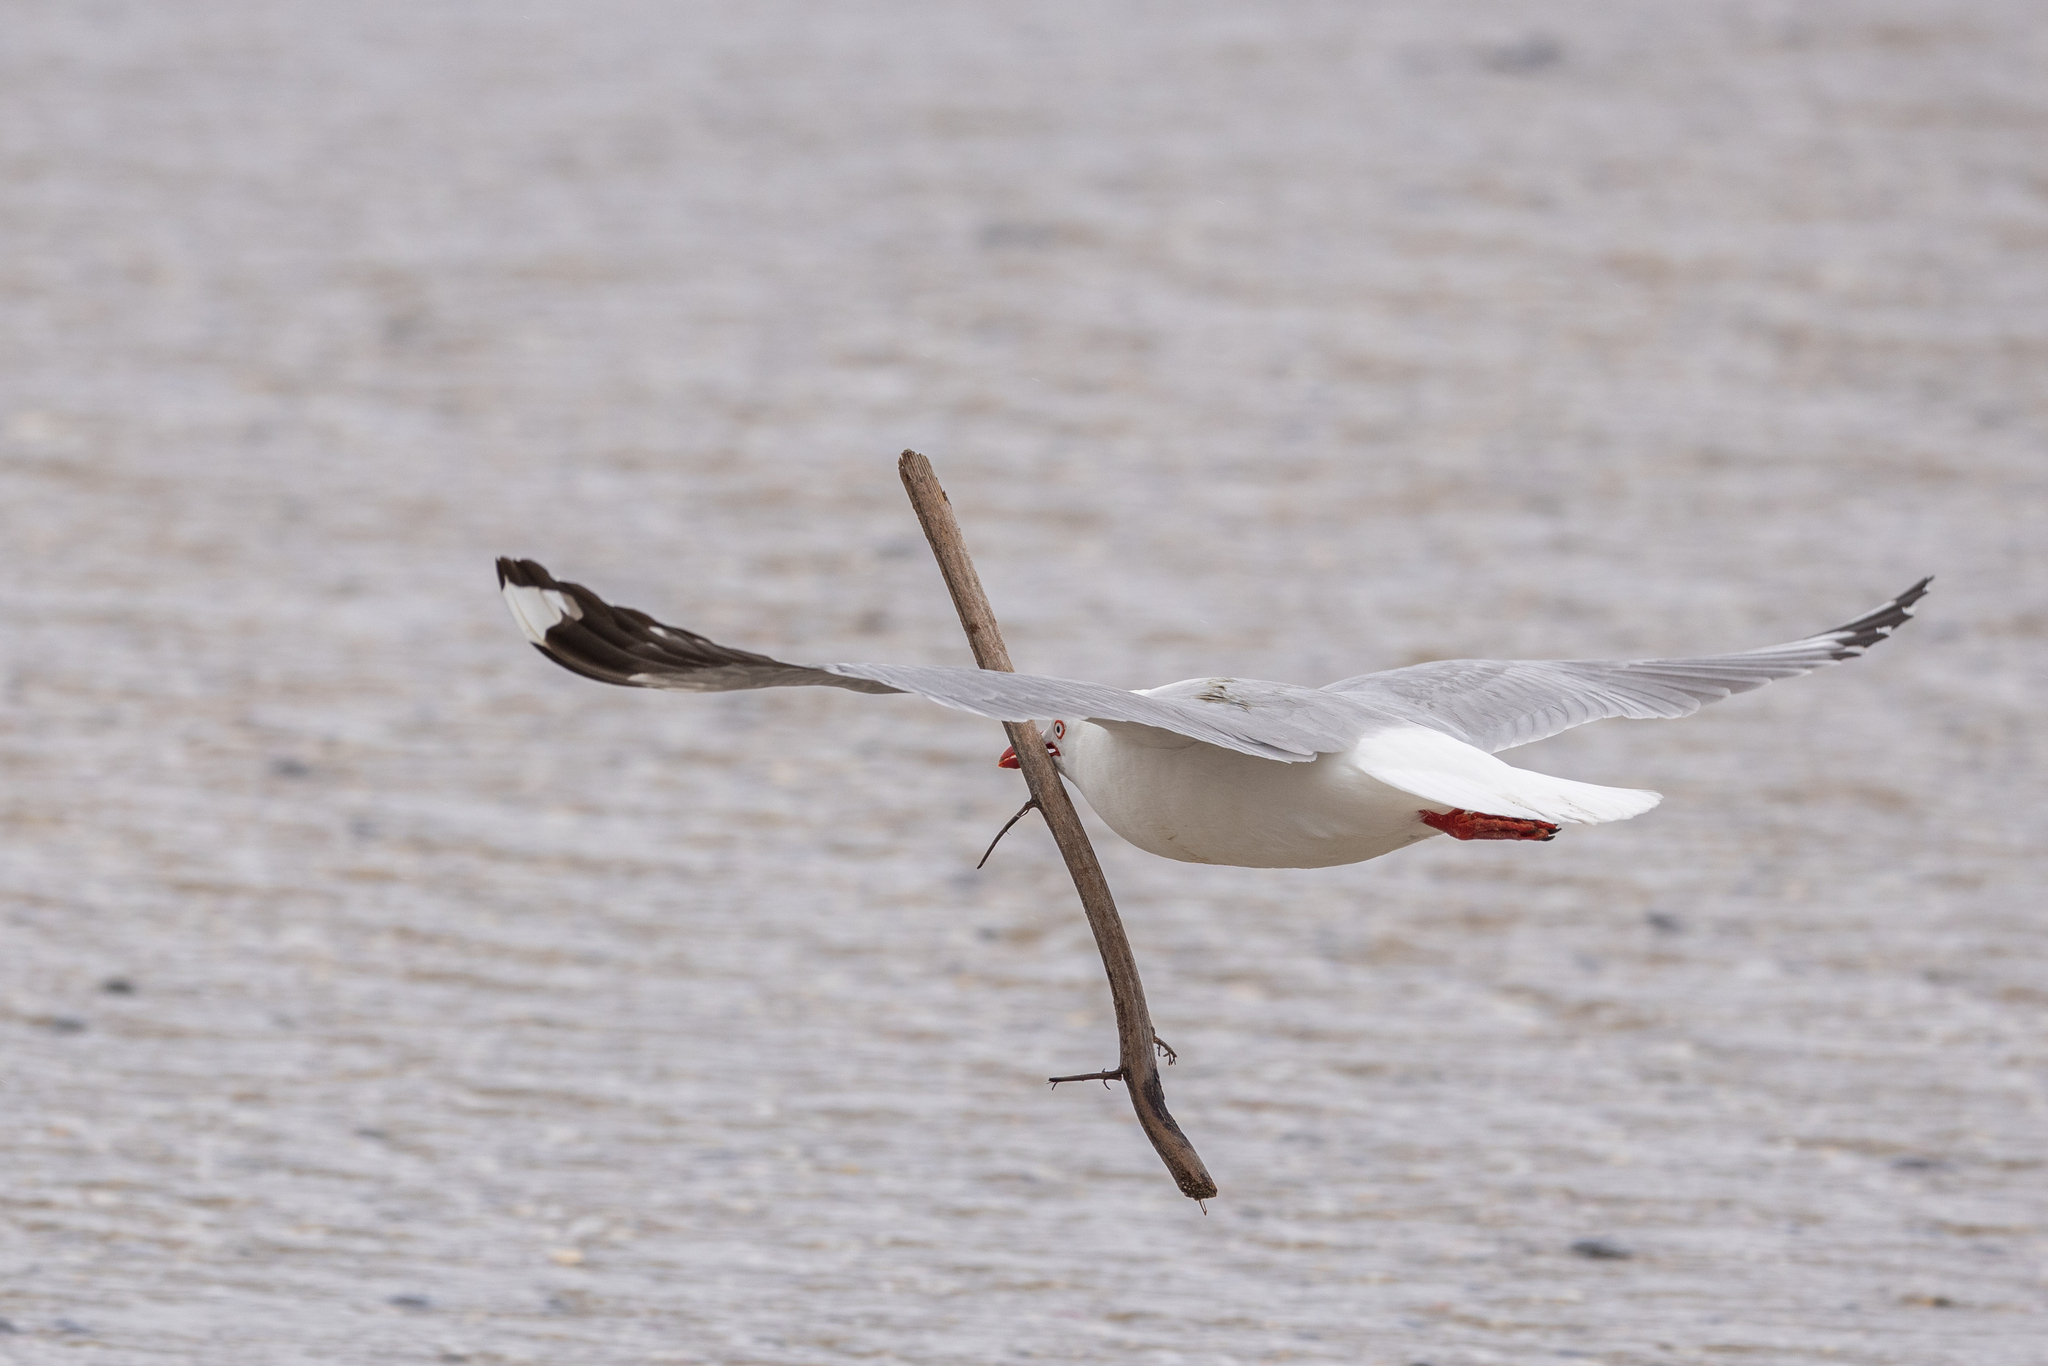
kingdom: Animalia
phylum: Chordata
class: Aves
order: Charadriiformes
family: Laridae
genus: Chroicocephalus
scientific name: Chroicocephalus novaehollandiae
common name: Silver gull
